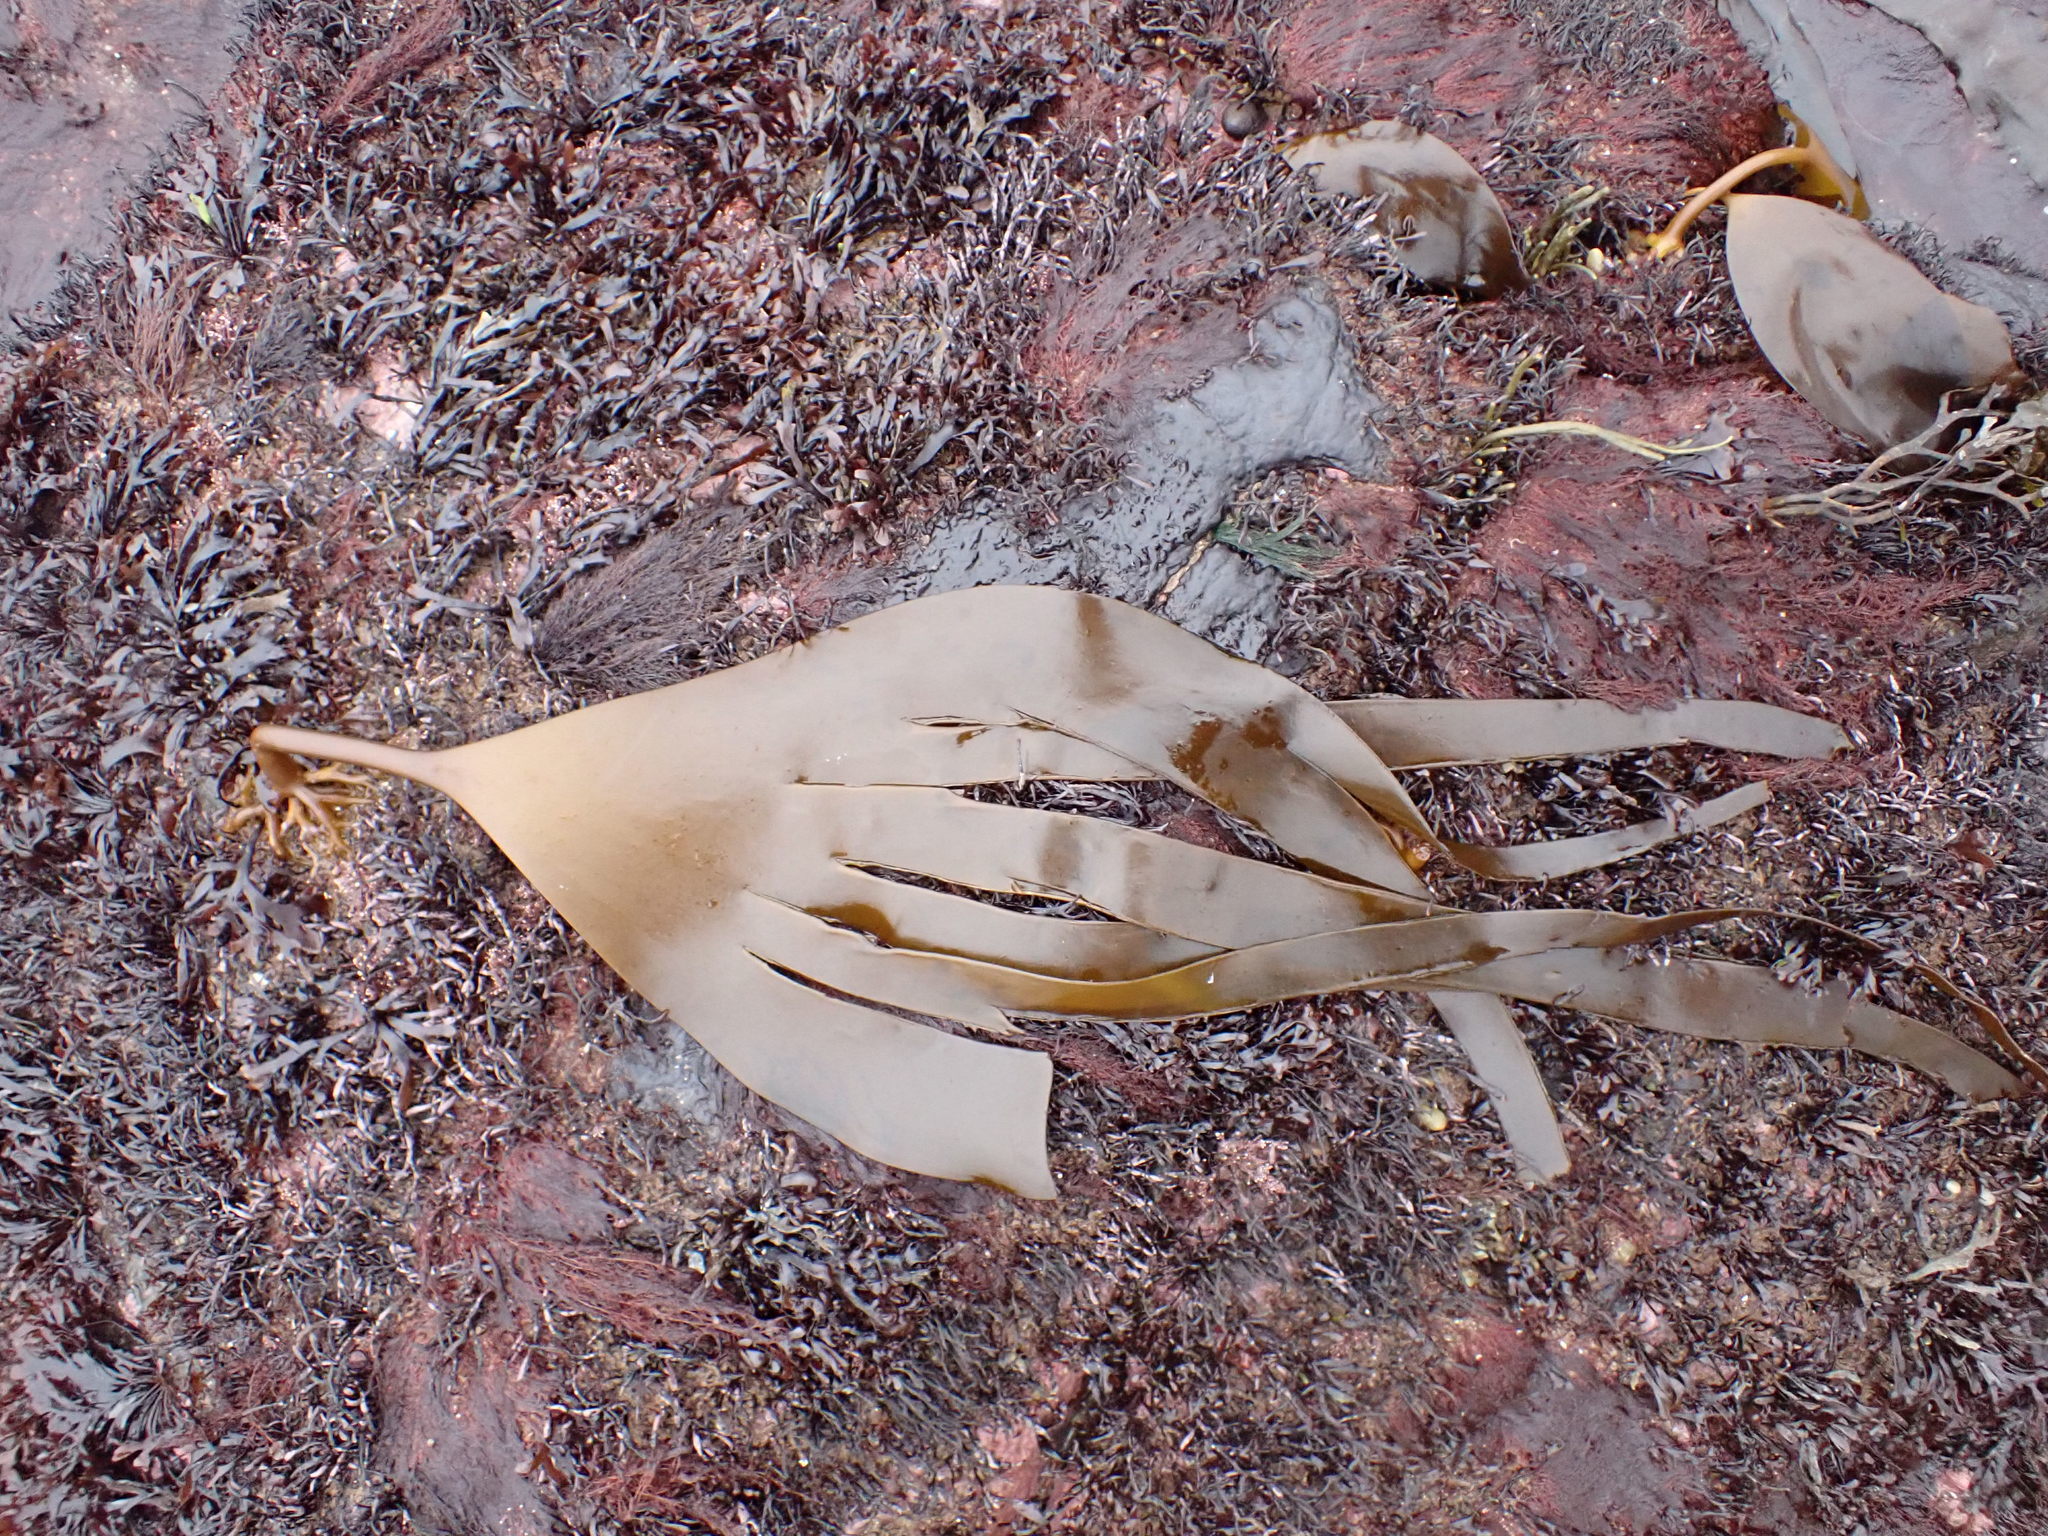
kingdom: Chromista
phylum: Ochrophyta
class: Phaeophyceae
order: Laminariales
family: Laminariaceae
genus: Laminaria
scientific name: Laminaria digitata
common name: Oarweed
